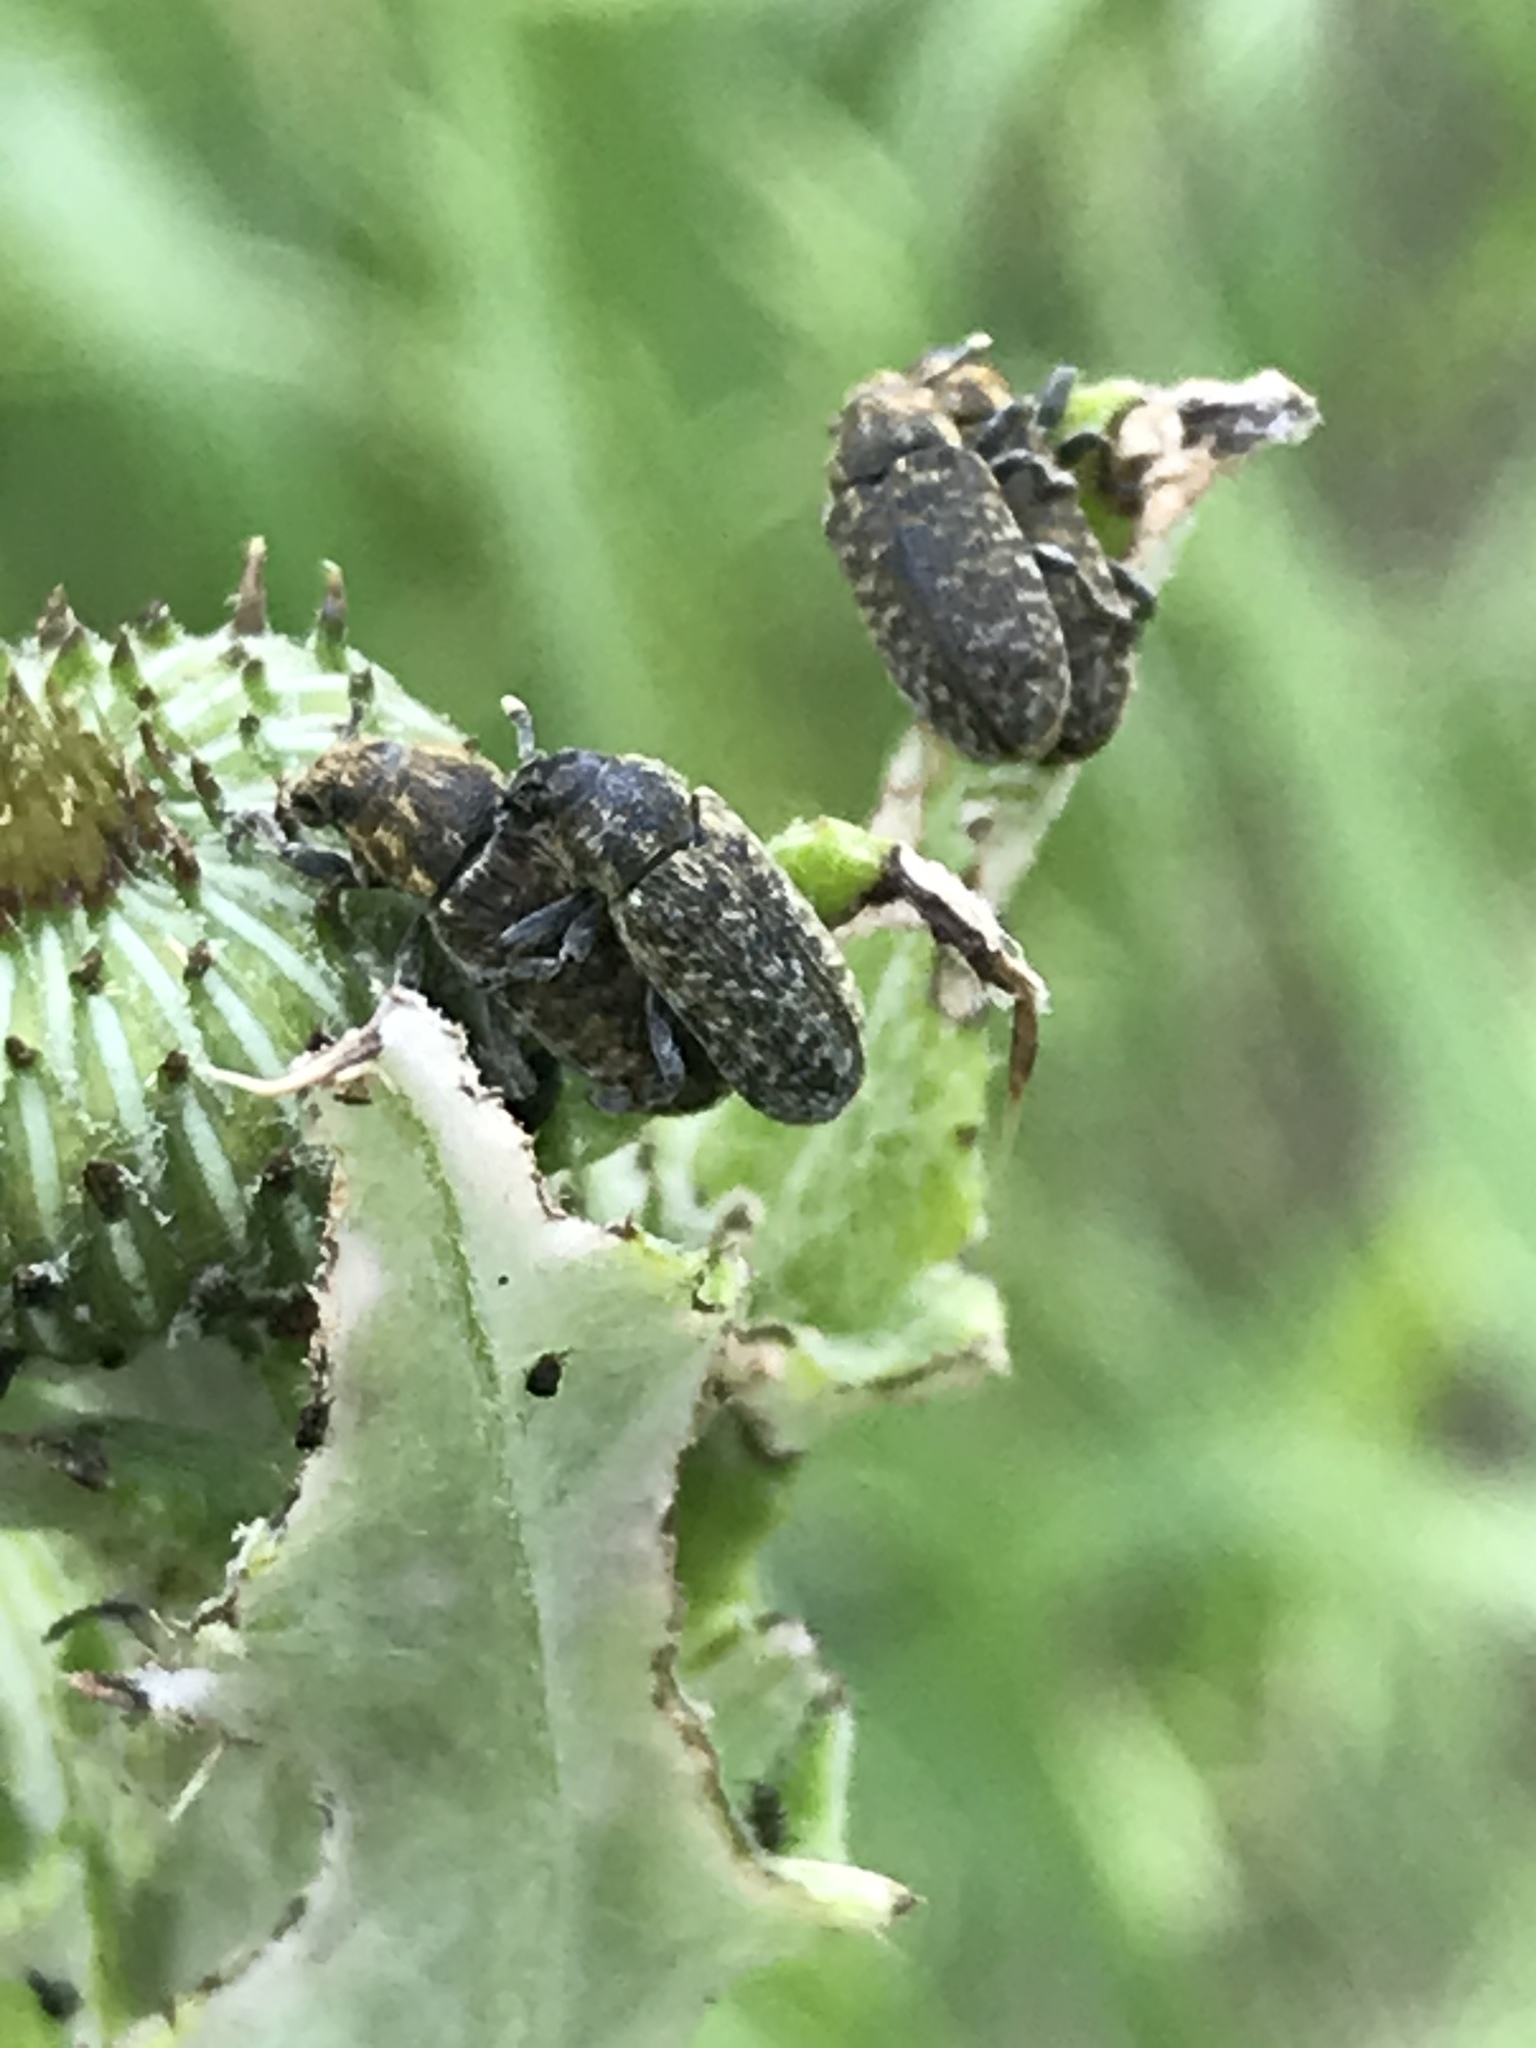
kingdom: Animalia
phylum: Arthropoda
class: Insecta
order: Coleoptera
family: Curculionidae
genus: Rhinocyllus
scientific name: Rhinocyllus conicus
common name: Weevil
